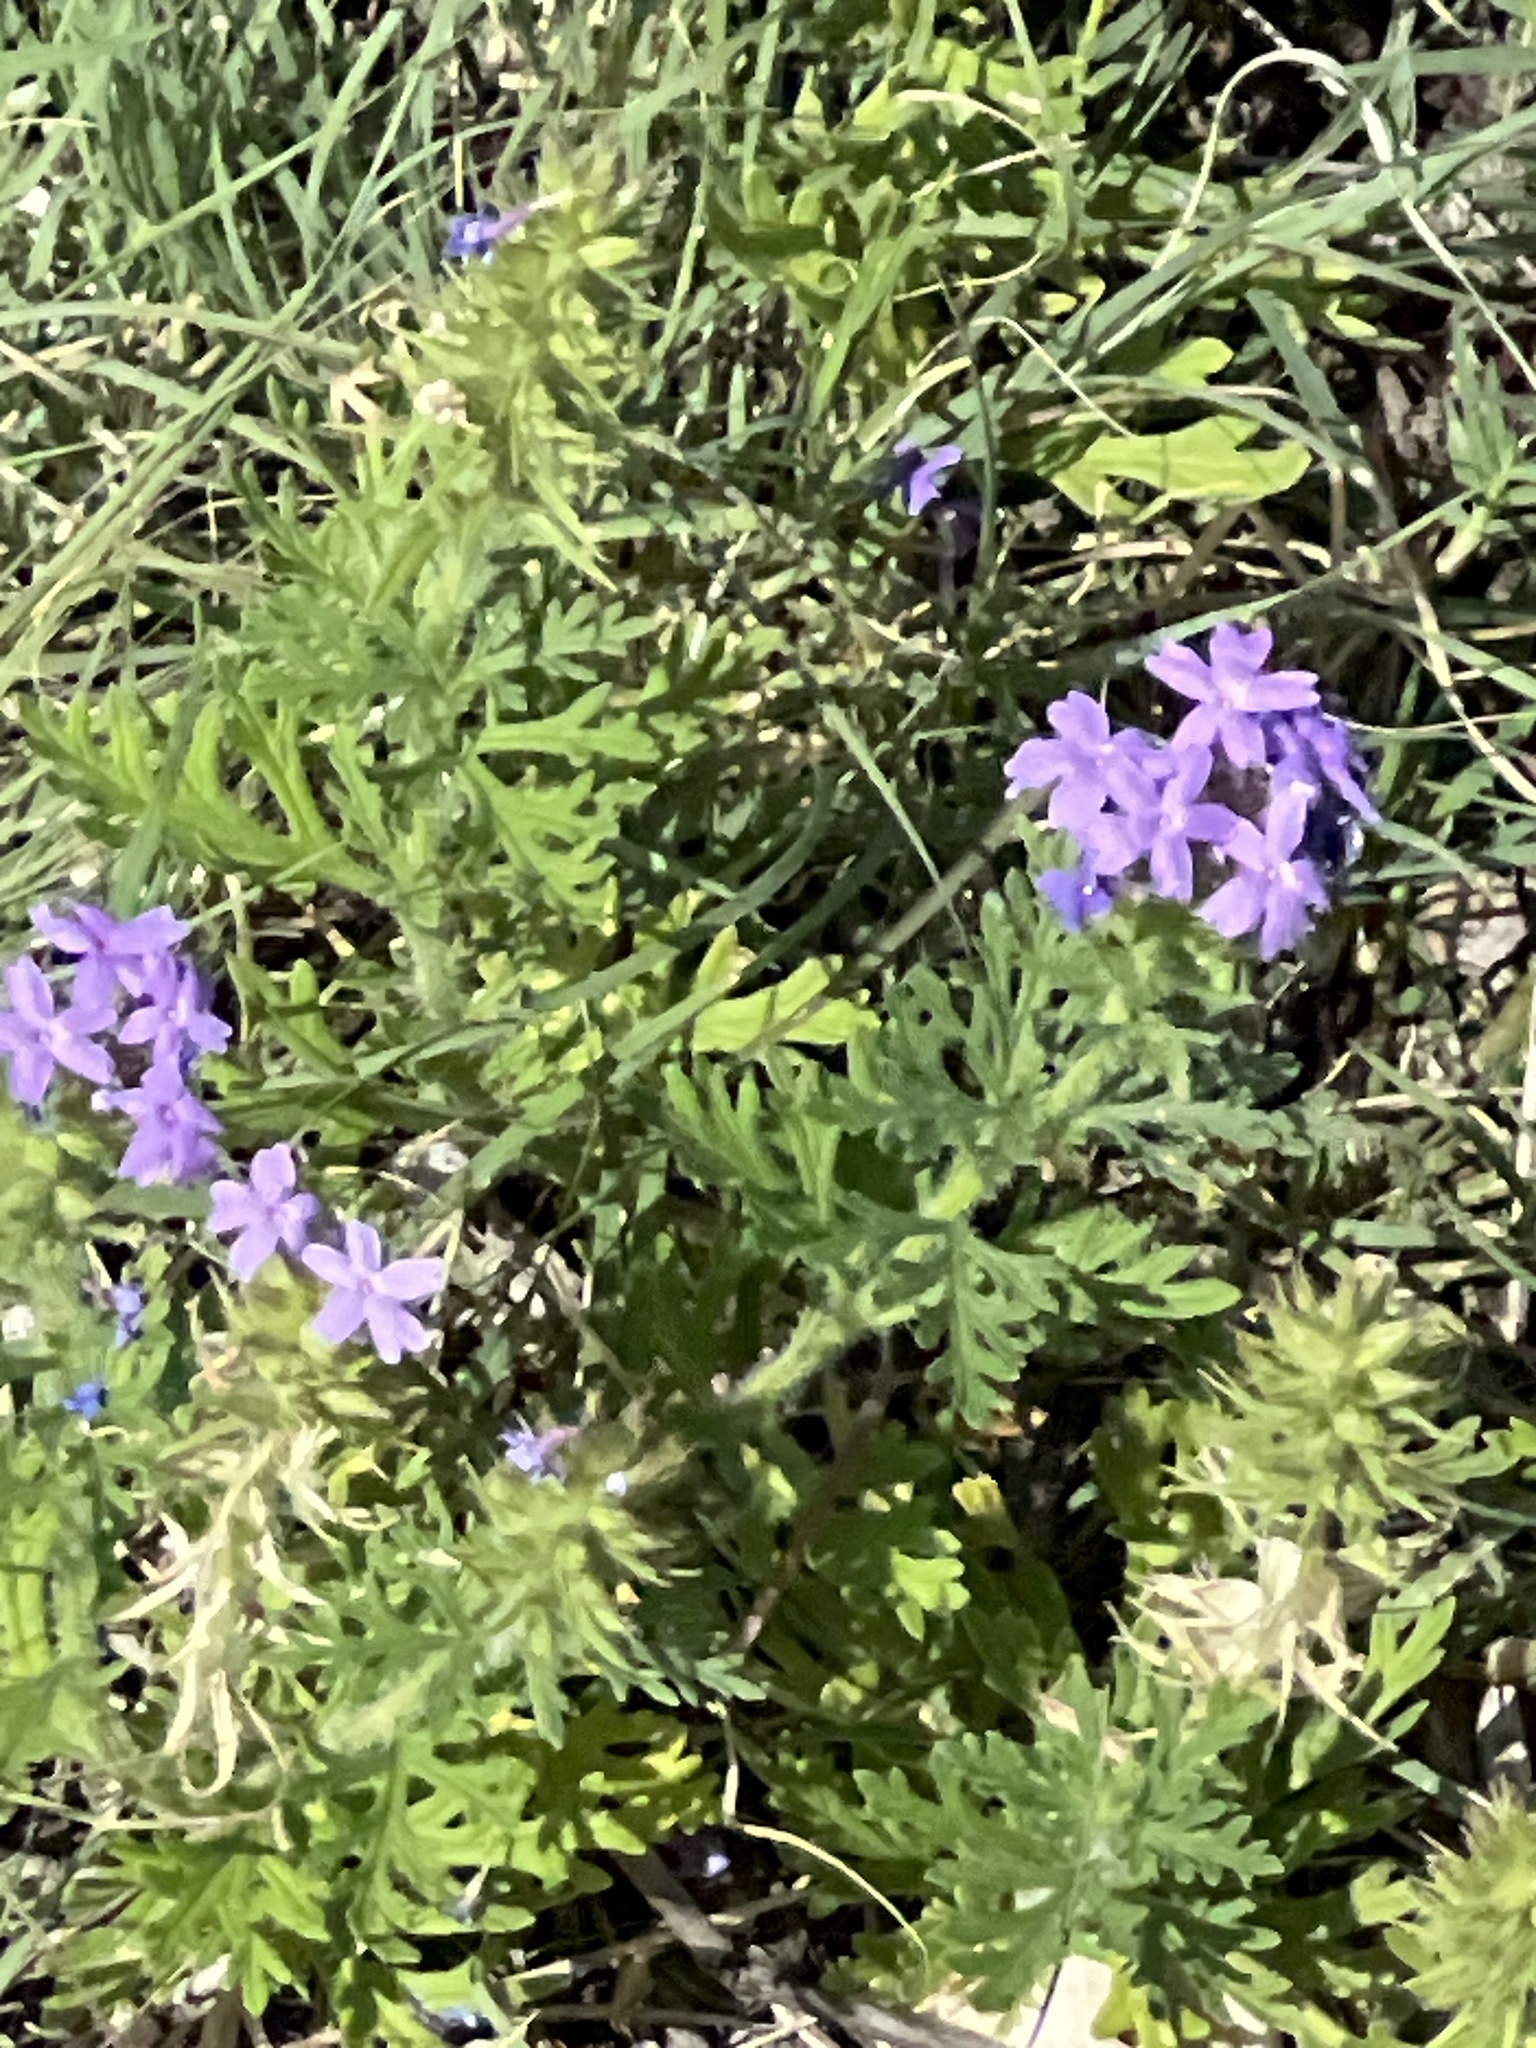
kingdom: Plantae
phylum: Tracheophyta
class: Magnoliopsida
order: Lamiales
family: Verbenaceae
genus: Verbena
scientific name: Verbena bipinnatifida
